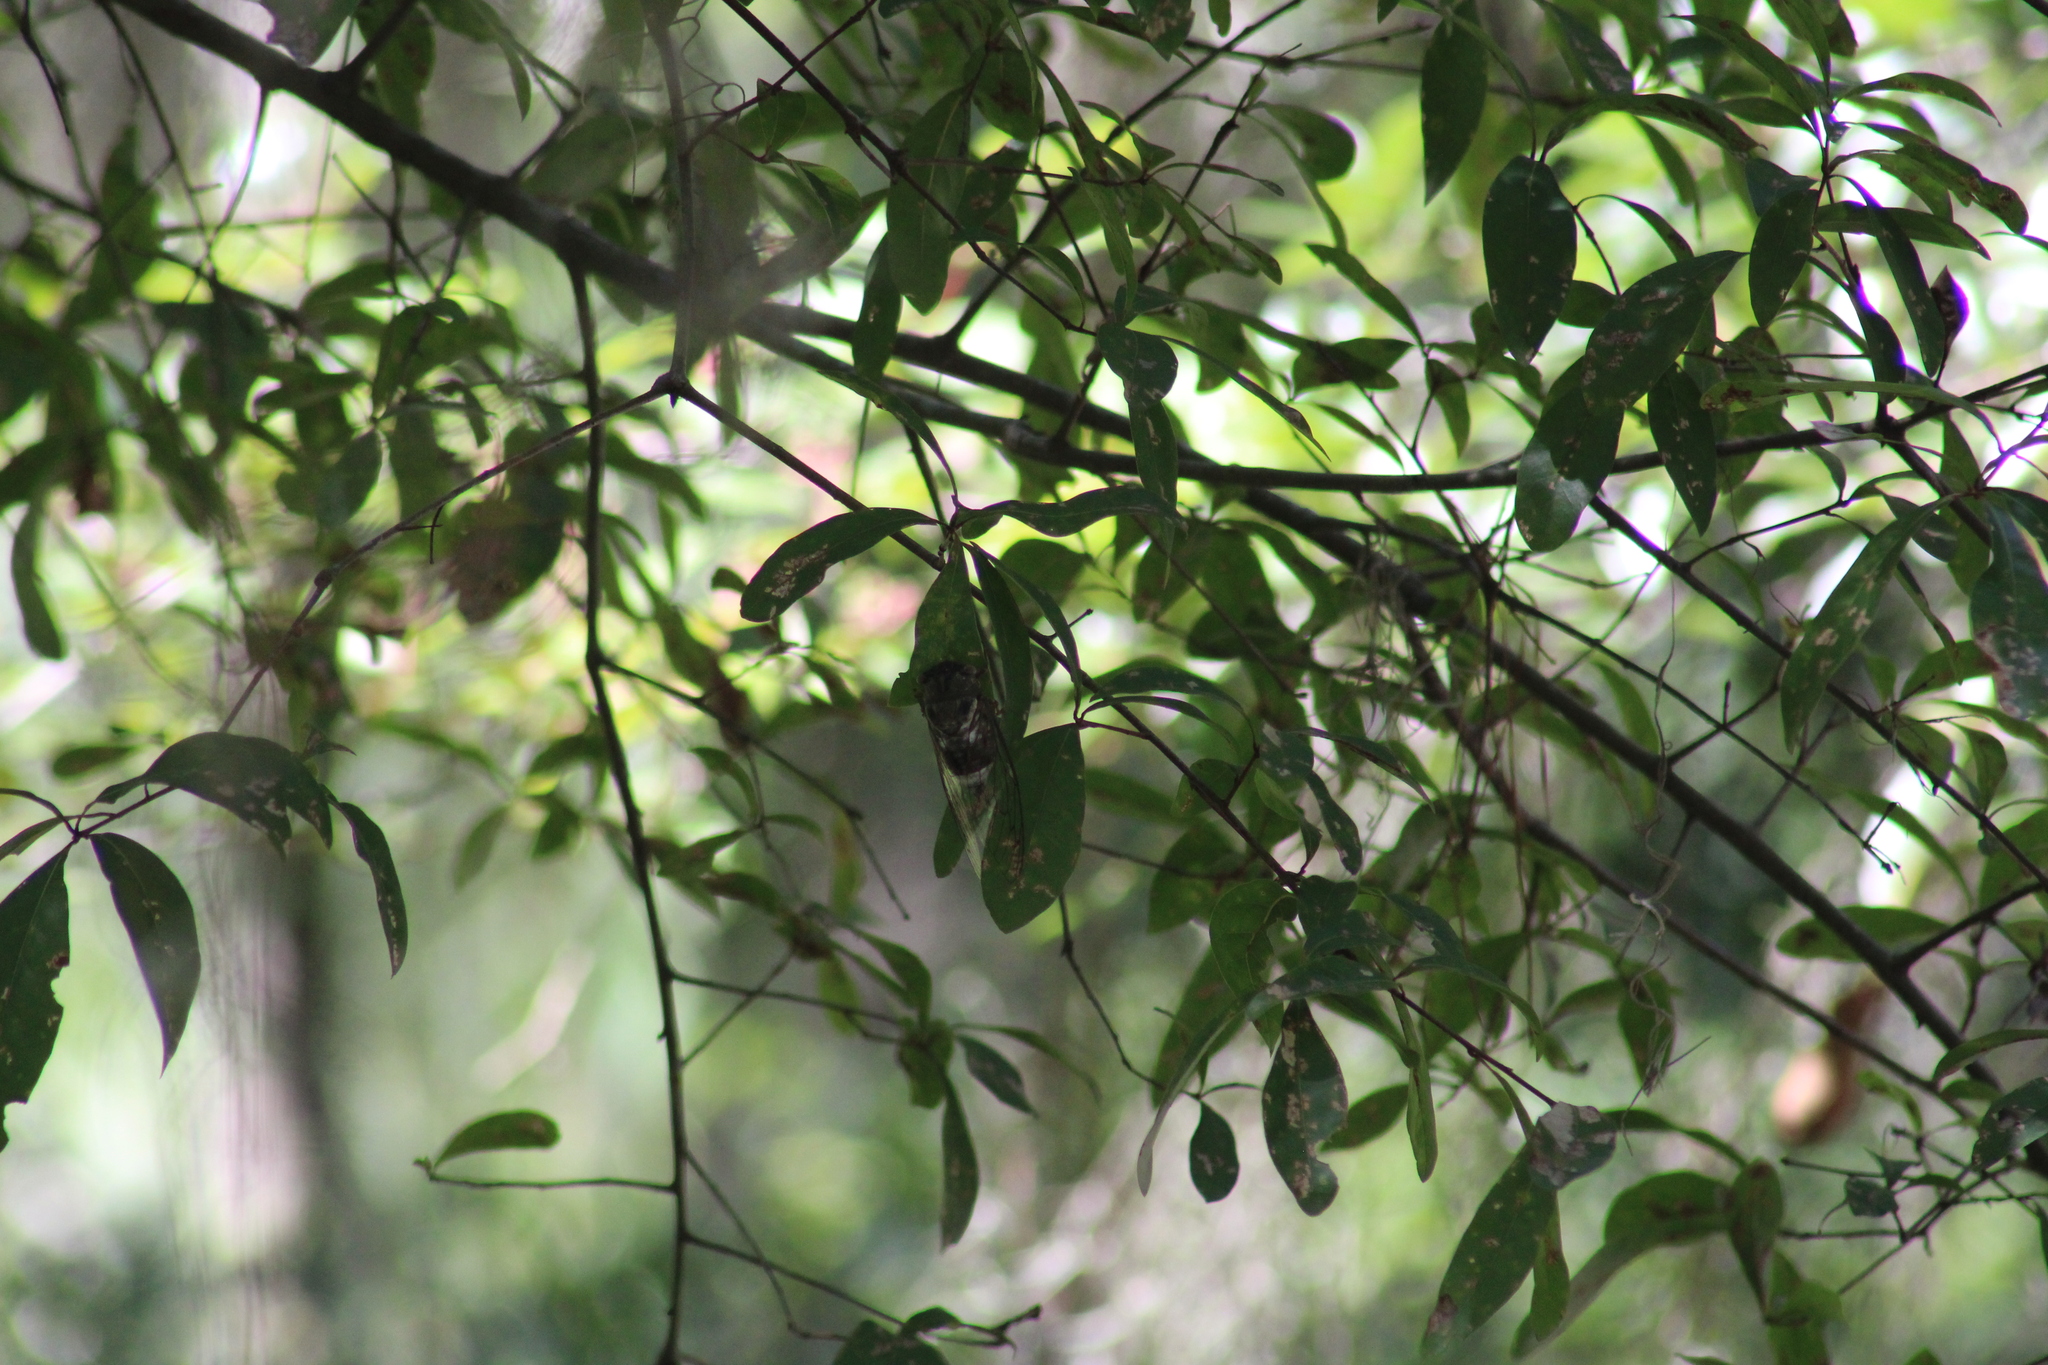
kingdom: Animalia
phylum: Arthropoda
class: Insecta
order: Hemiptera
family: Cicadidae
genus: Diceroprocta
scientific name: Diceroprocta grossa
